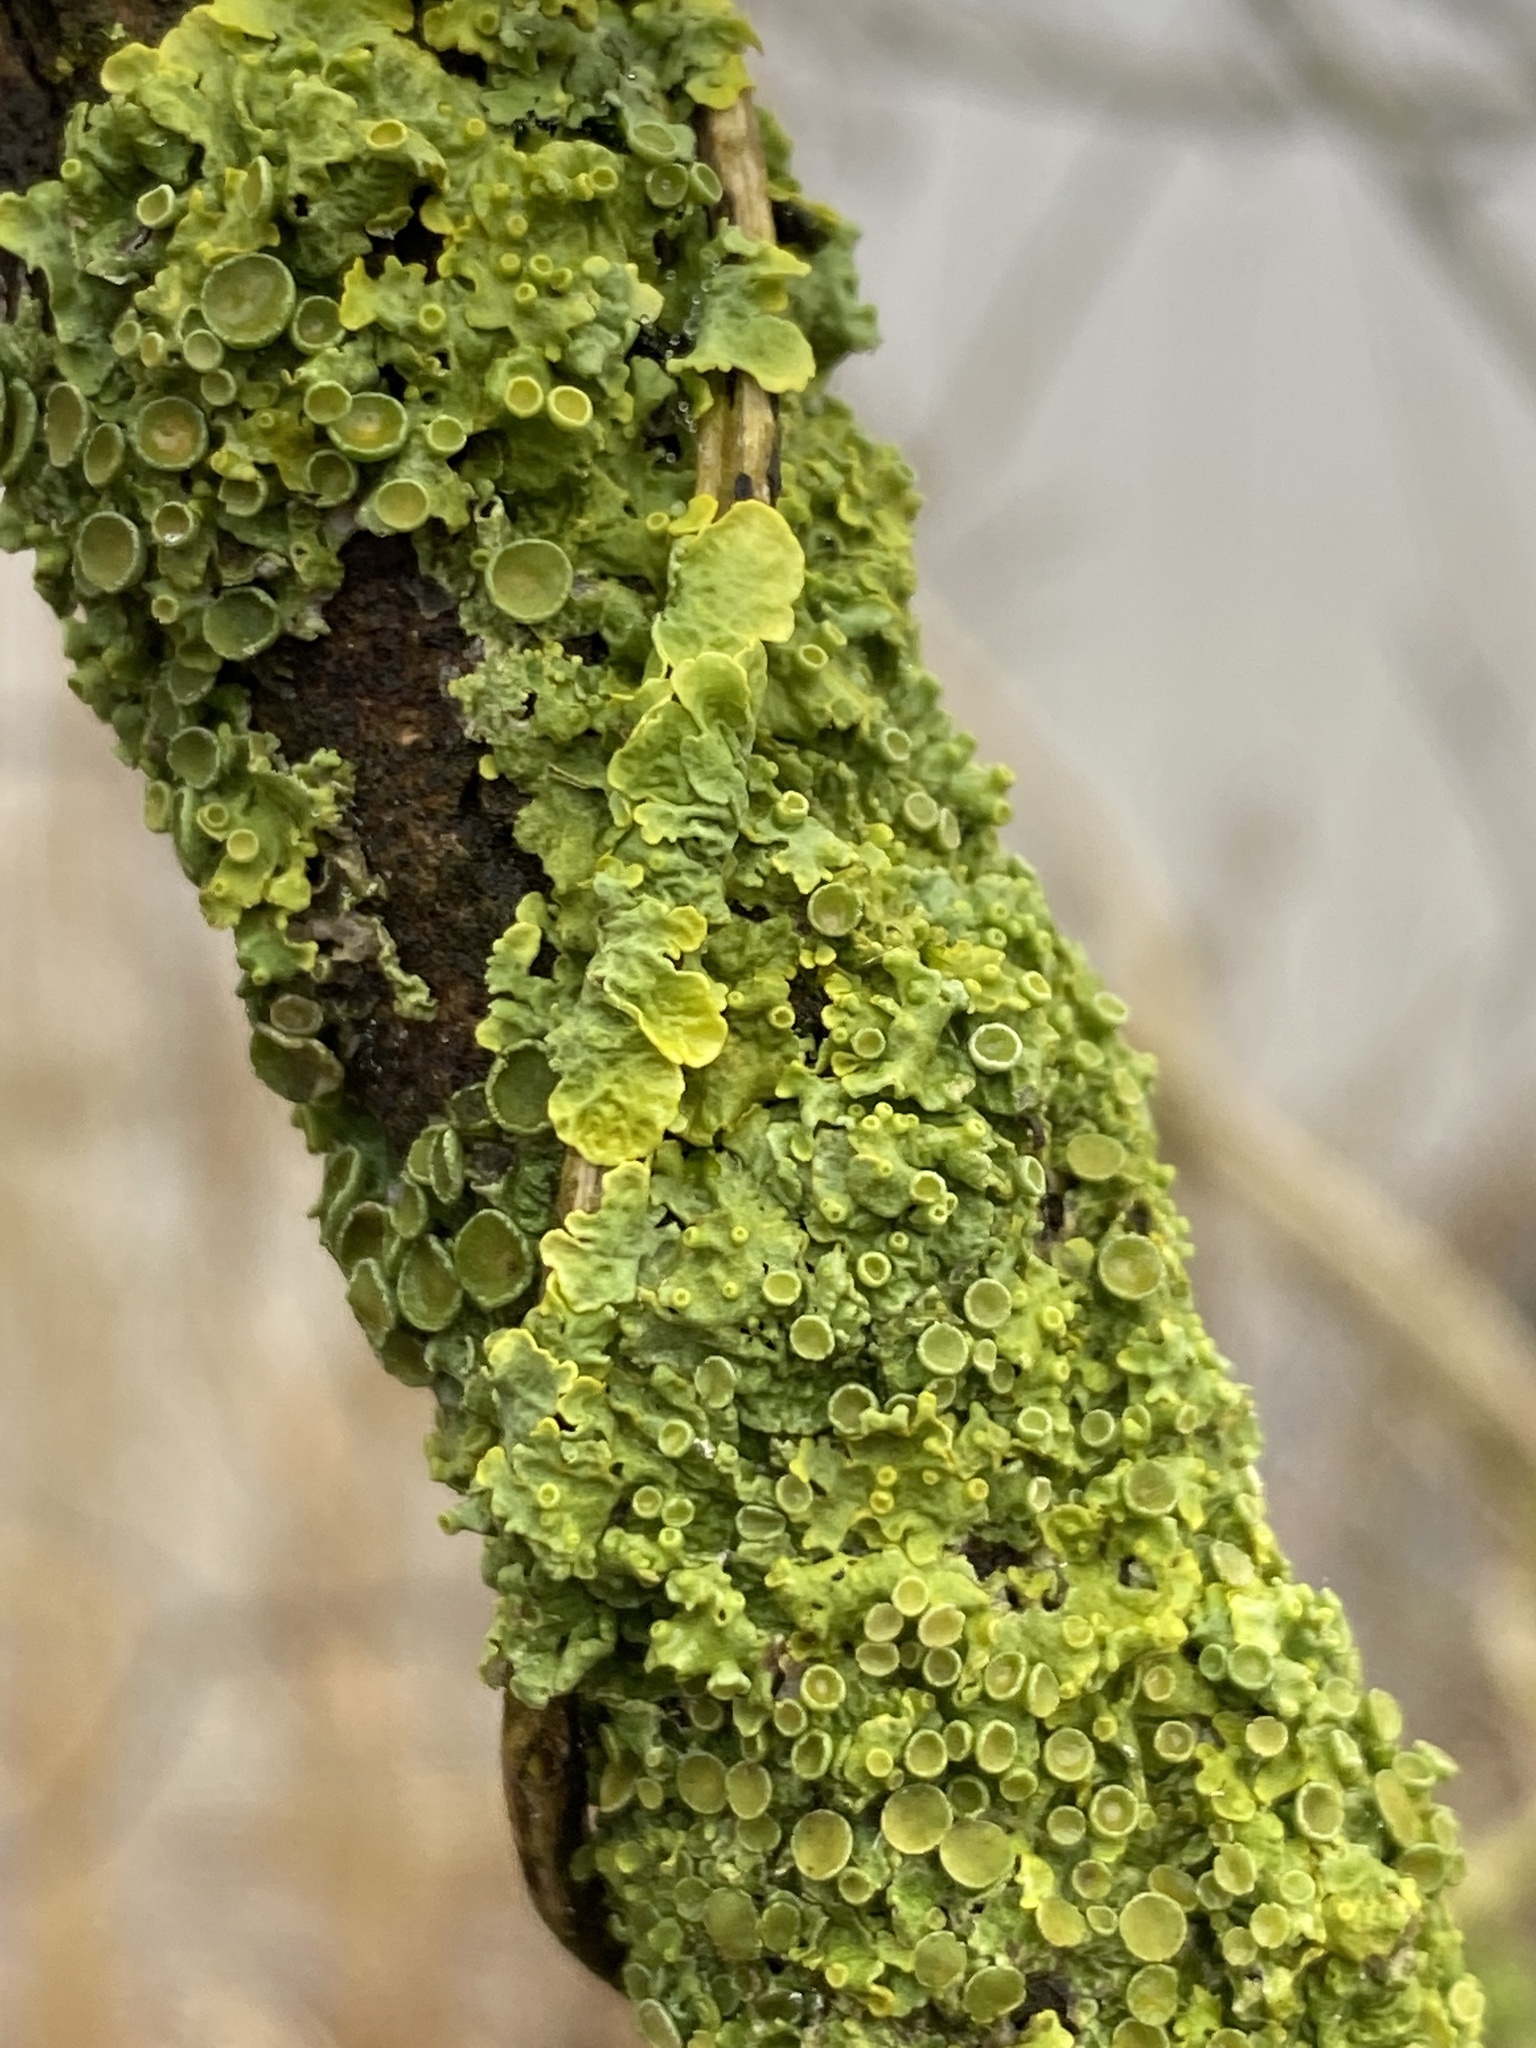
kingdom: Fungi
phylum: Ascomycota
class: Lecanoromycetes
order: Teloschistales
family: Teloschistaceae
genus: Xanthoria
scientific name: Xanthoria parietina
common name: Common orange lichen
